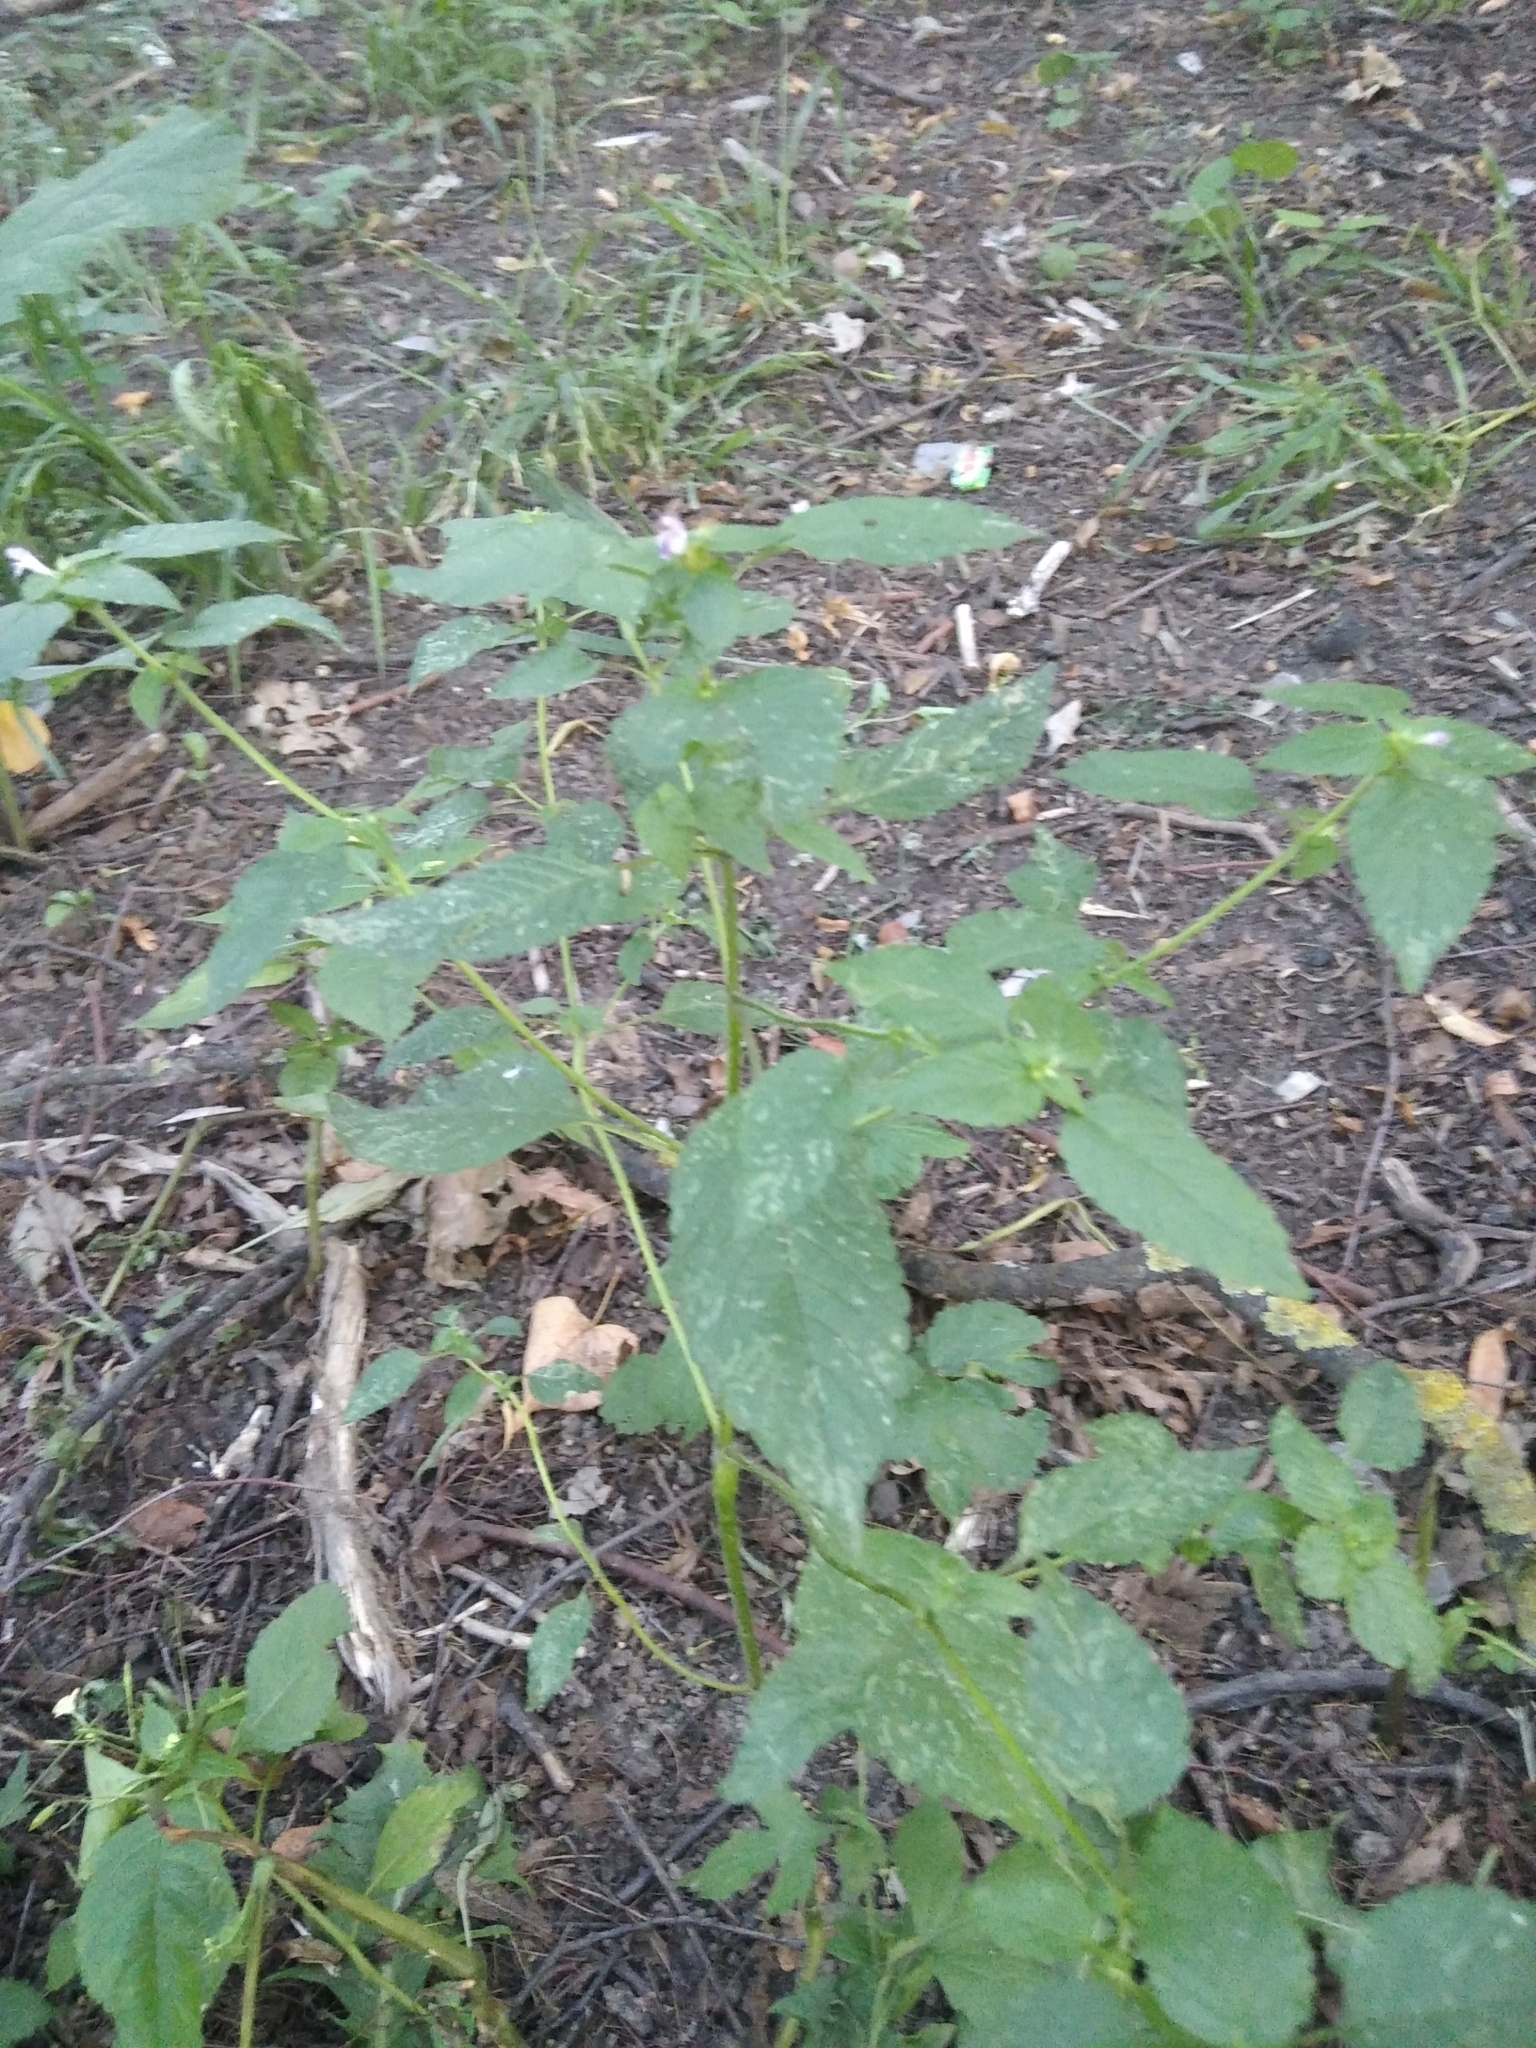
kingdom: Plantae
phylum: Tracheophyta
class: Magnoliopsida
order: Lamiales
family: Lamiaceae
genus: Galeopsis
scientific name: Galeopsis bifida
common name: Bifid hemp-nettle
